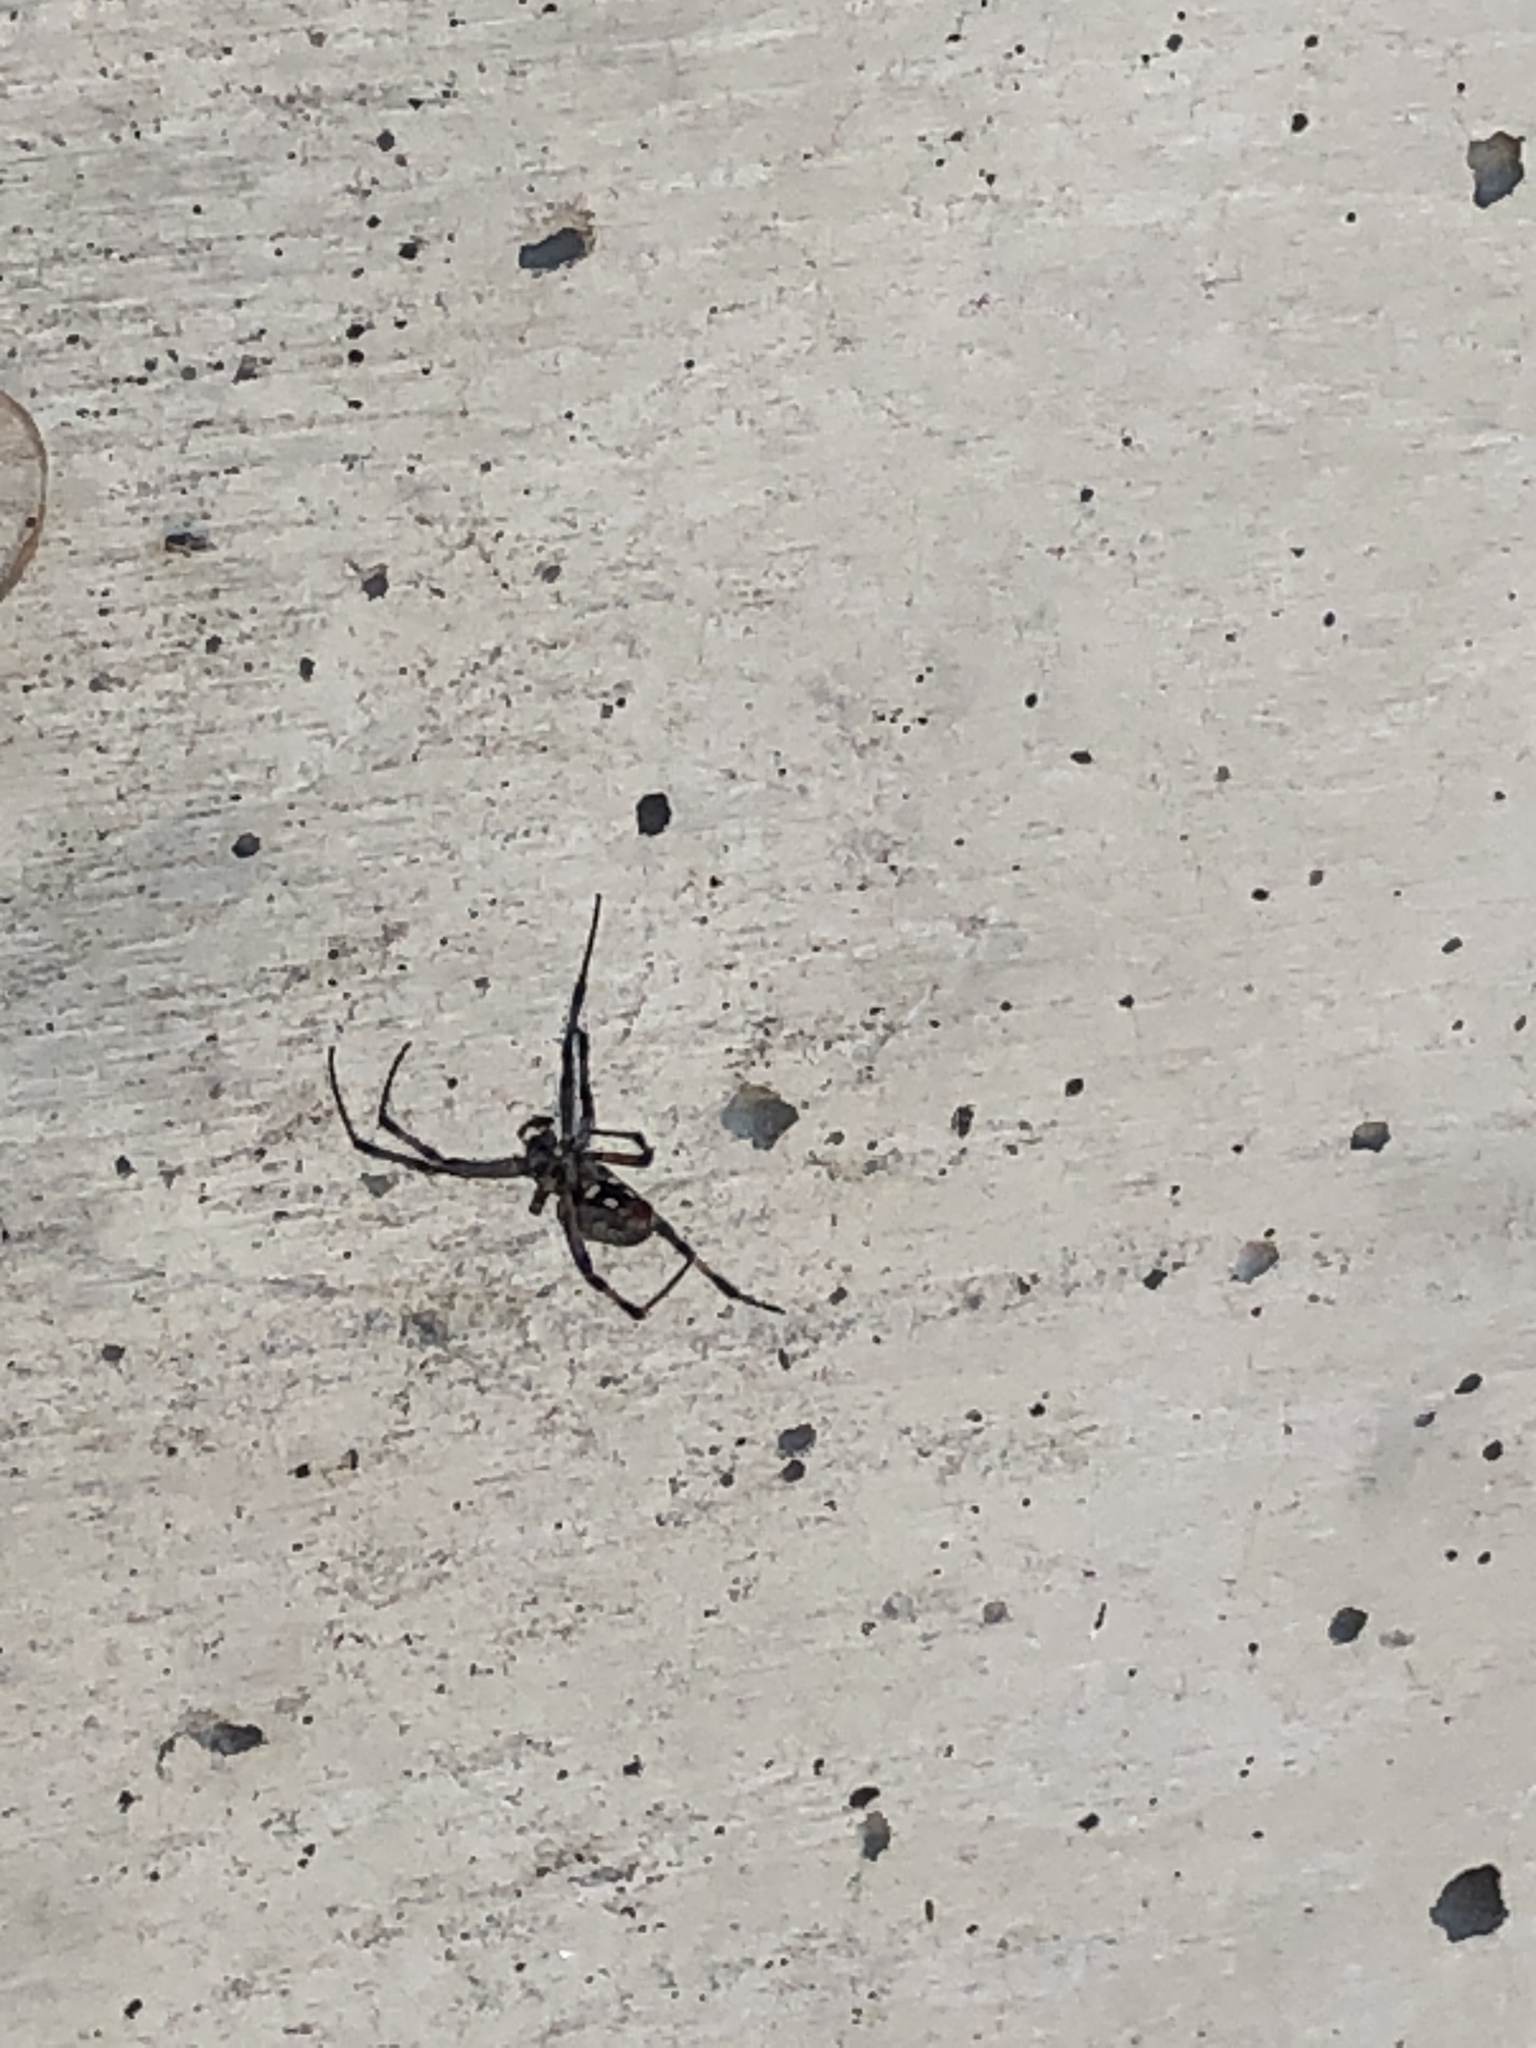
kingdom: Animalia
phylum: Arthropoda
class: Arachnida
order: Araneae
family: Araneidae
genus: Neoscona
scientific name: Neoscona oaxacensis
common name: Orb weavers
